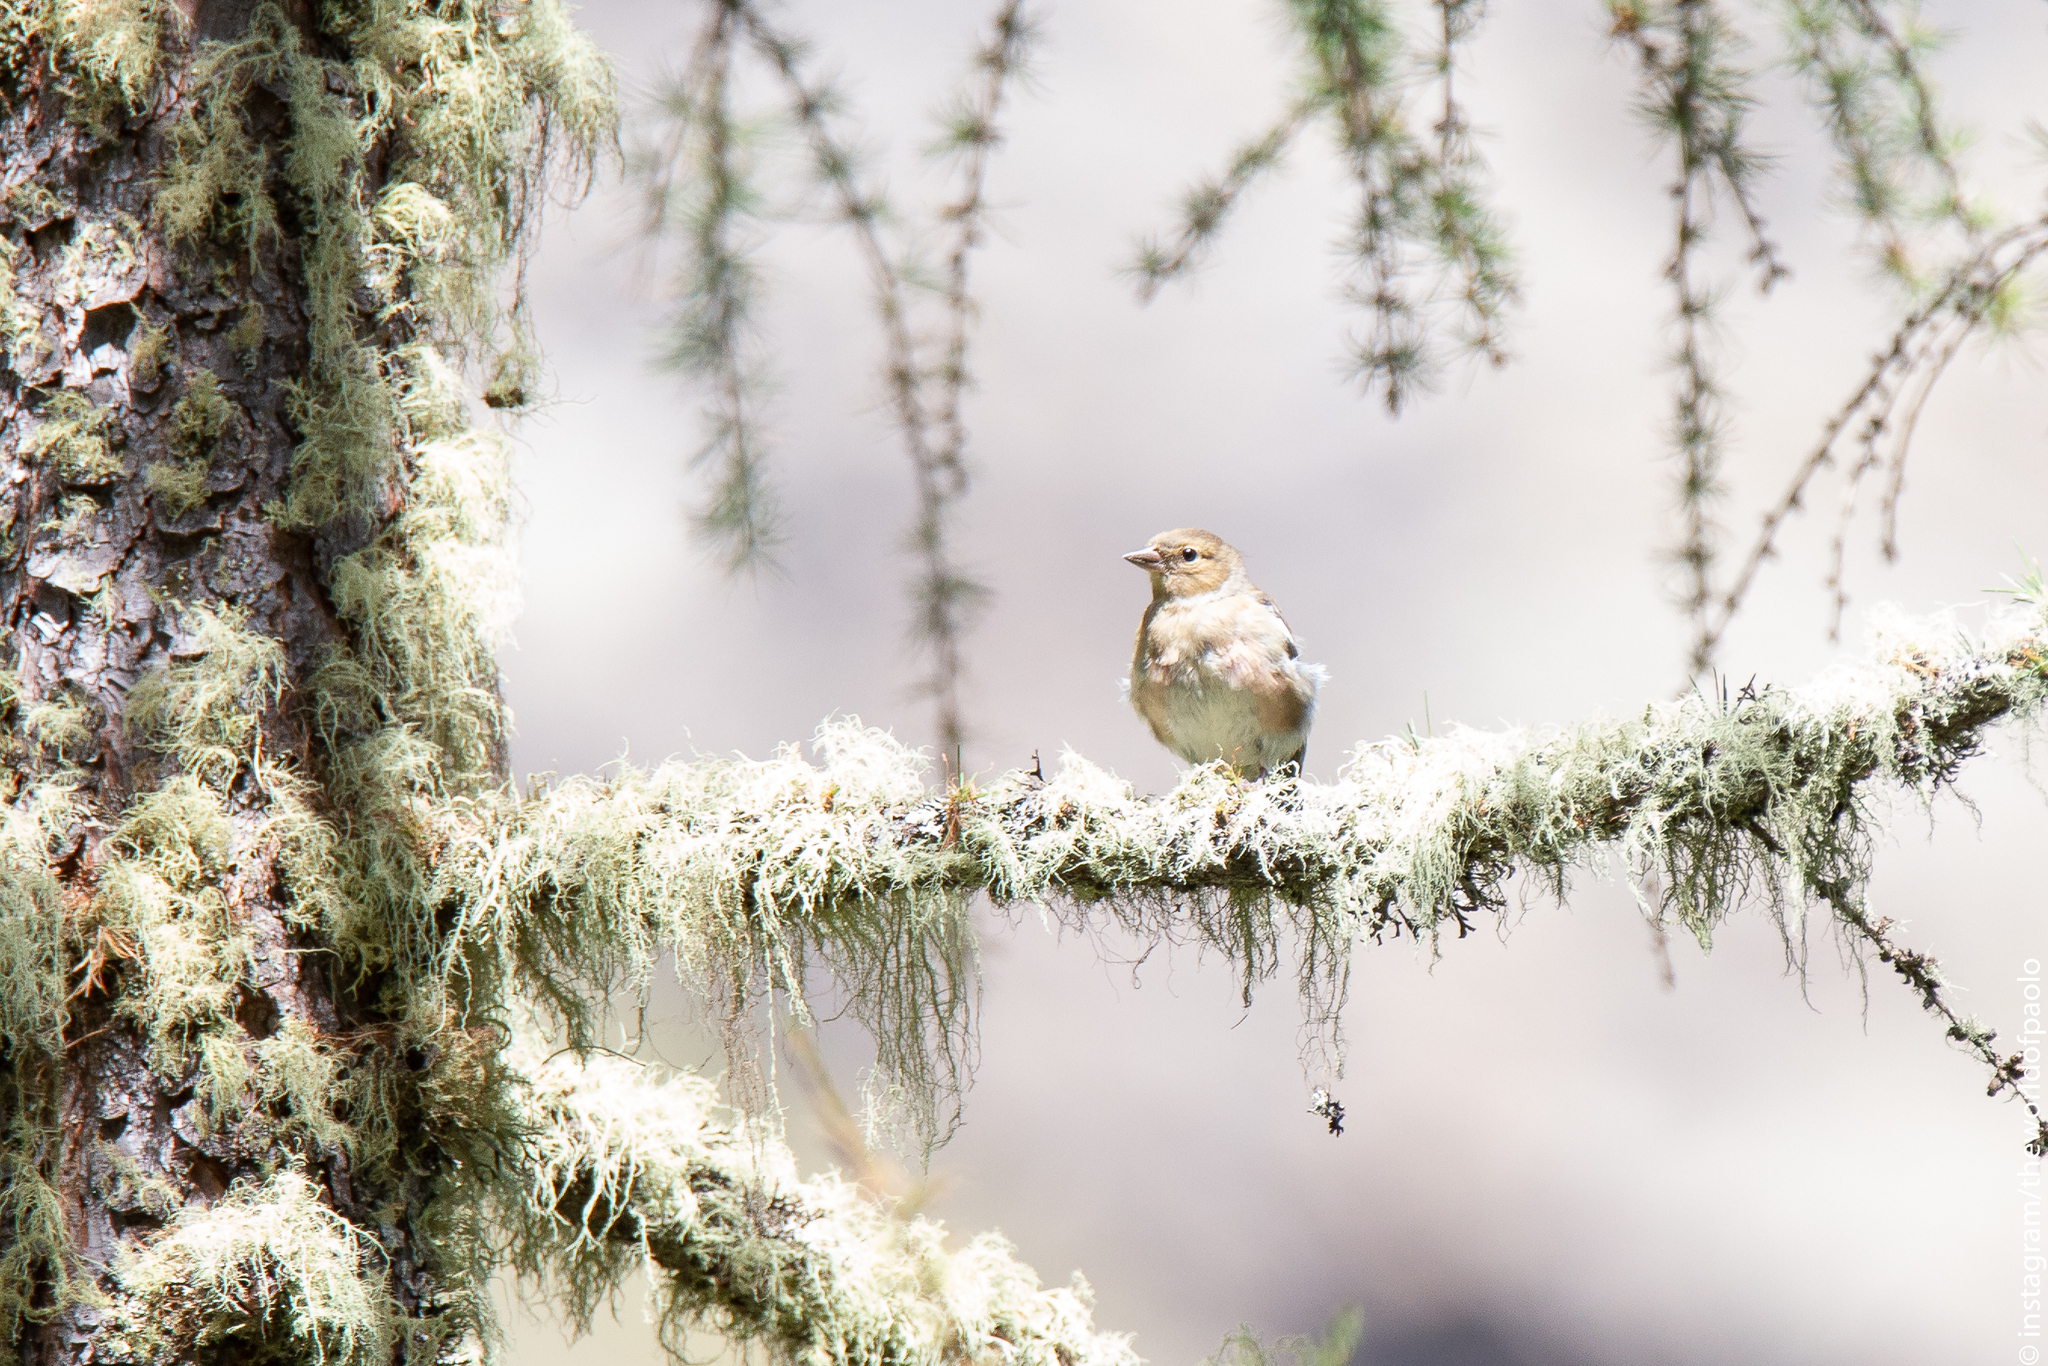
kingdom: Animalia
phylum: Chordata
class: Aves
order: Passeriformes
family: Fringillidae
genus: Fringilla
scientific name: Fringilla coelebs
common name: Common chaffinch
